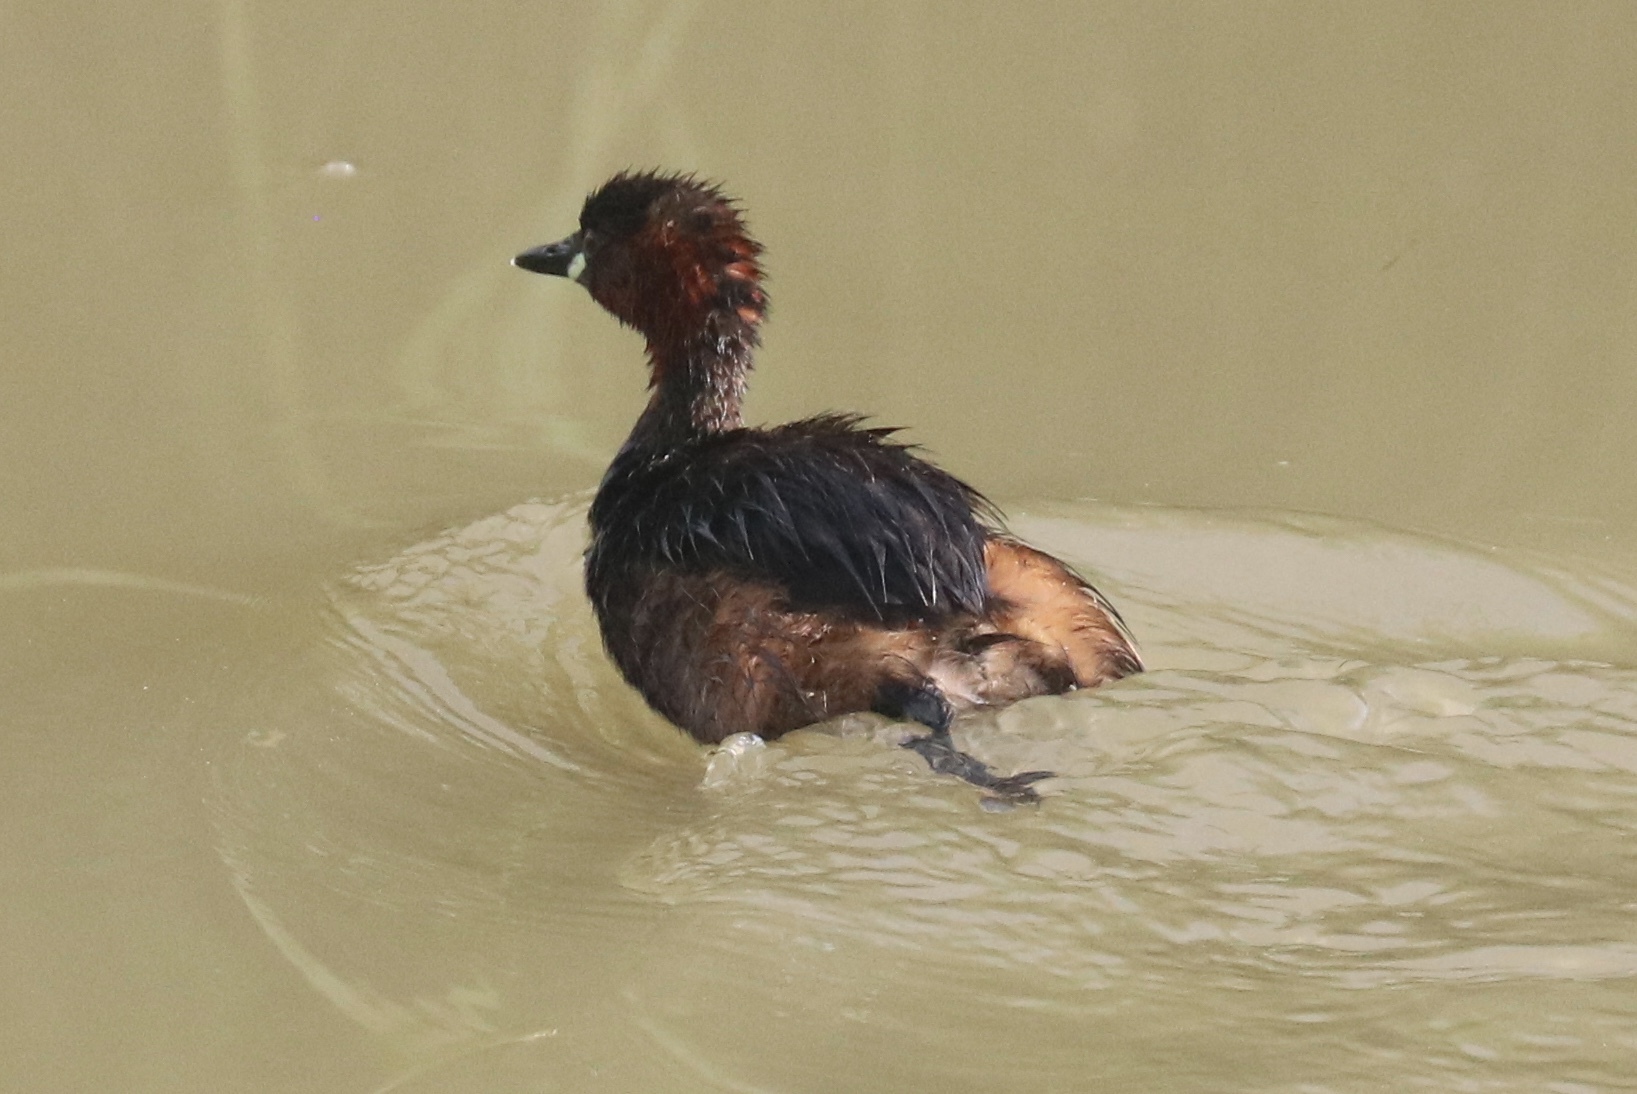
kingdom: Animalia
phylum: Chordata
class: Aves
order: Podicipediformes
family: Podicipedidae
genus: Tachybaptus
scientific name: Tachybaptus ruficollis
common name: Little grebe
